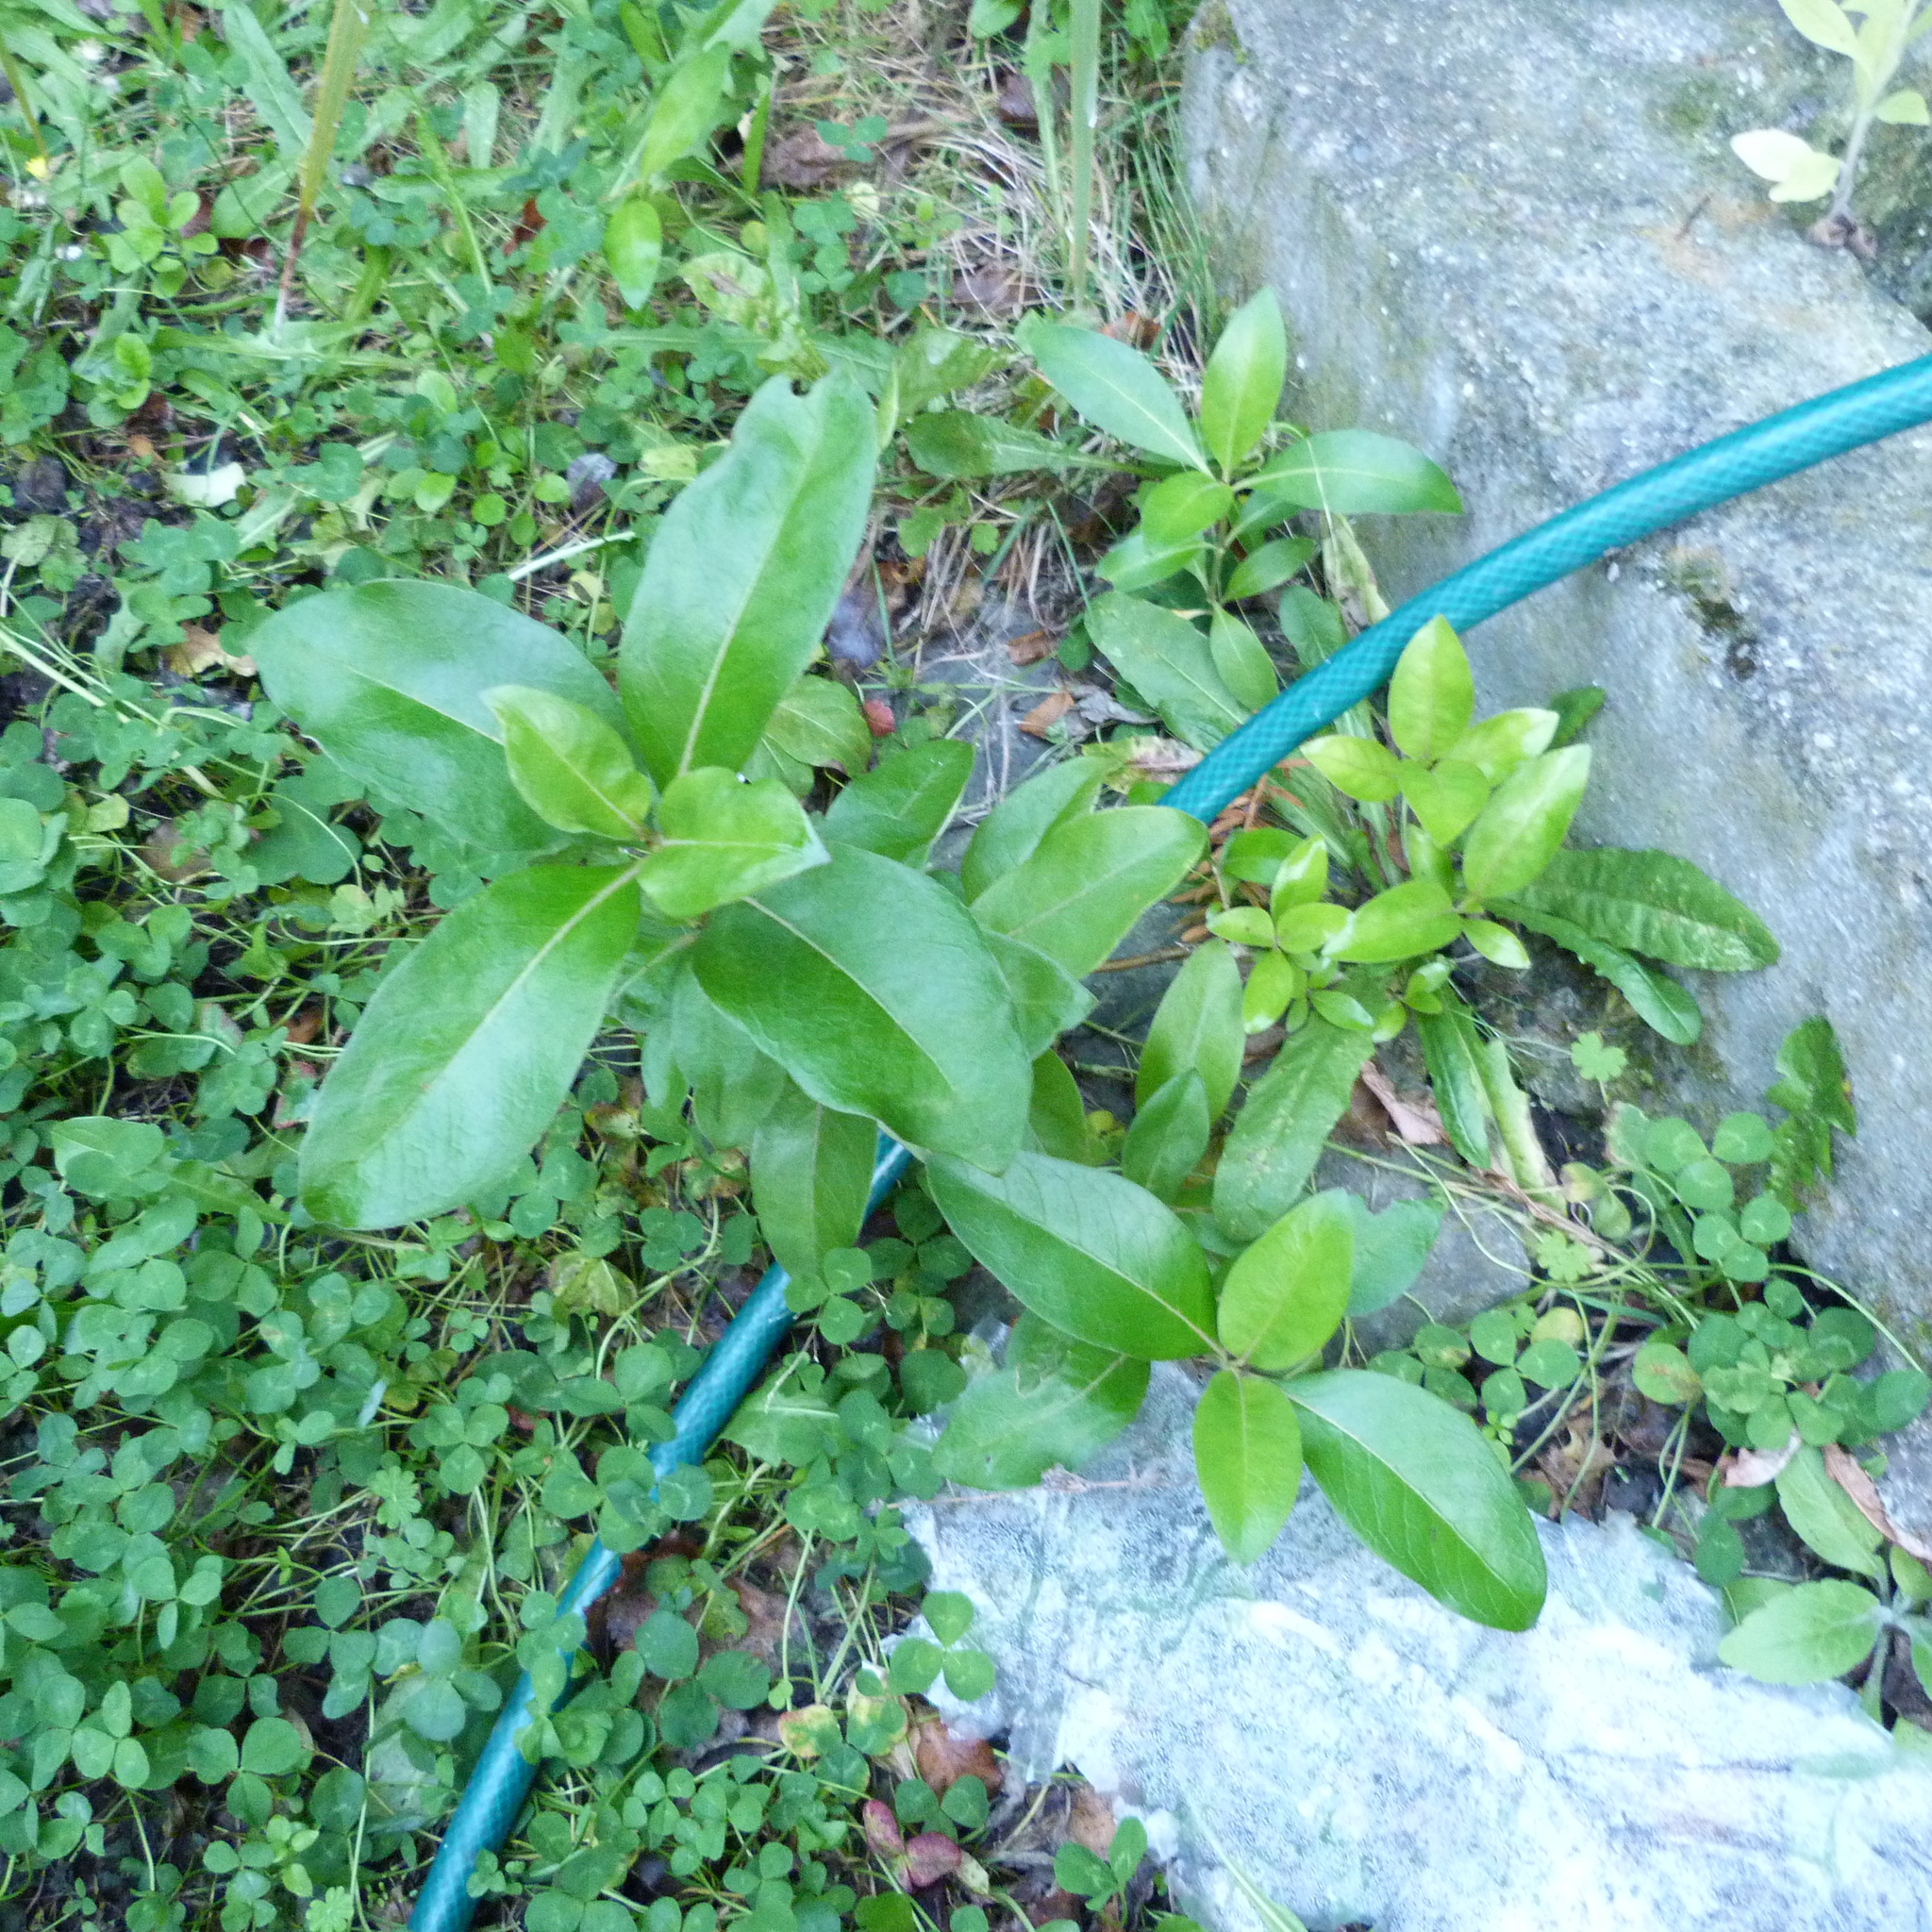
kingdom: Plantae
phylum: Tracheophyta
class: Magnoliopsida
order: Gentianales
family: Rubiaceae
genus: Coprosma
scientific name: Coprosma robusta
